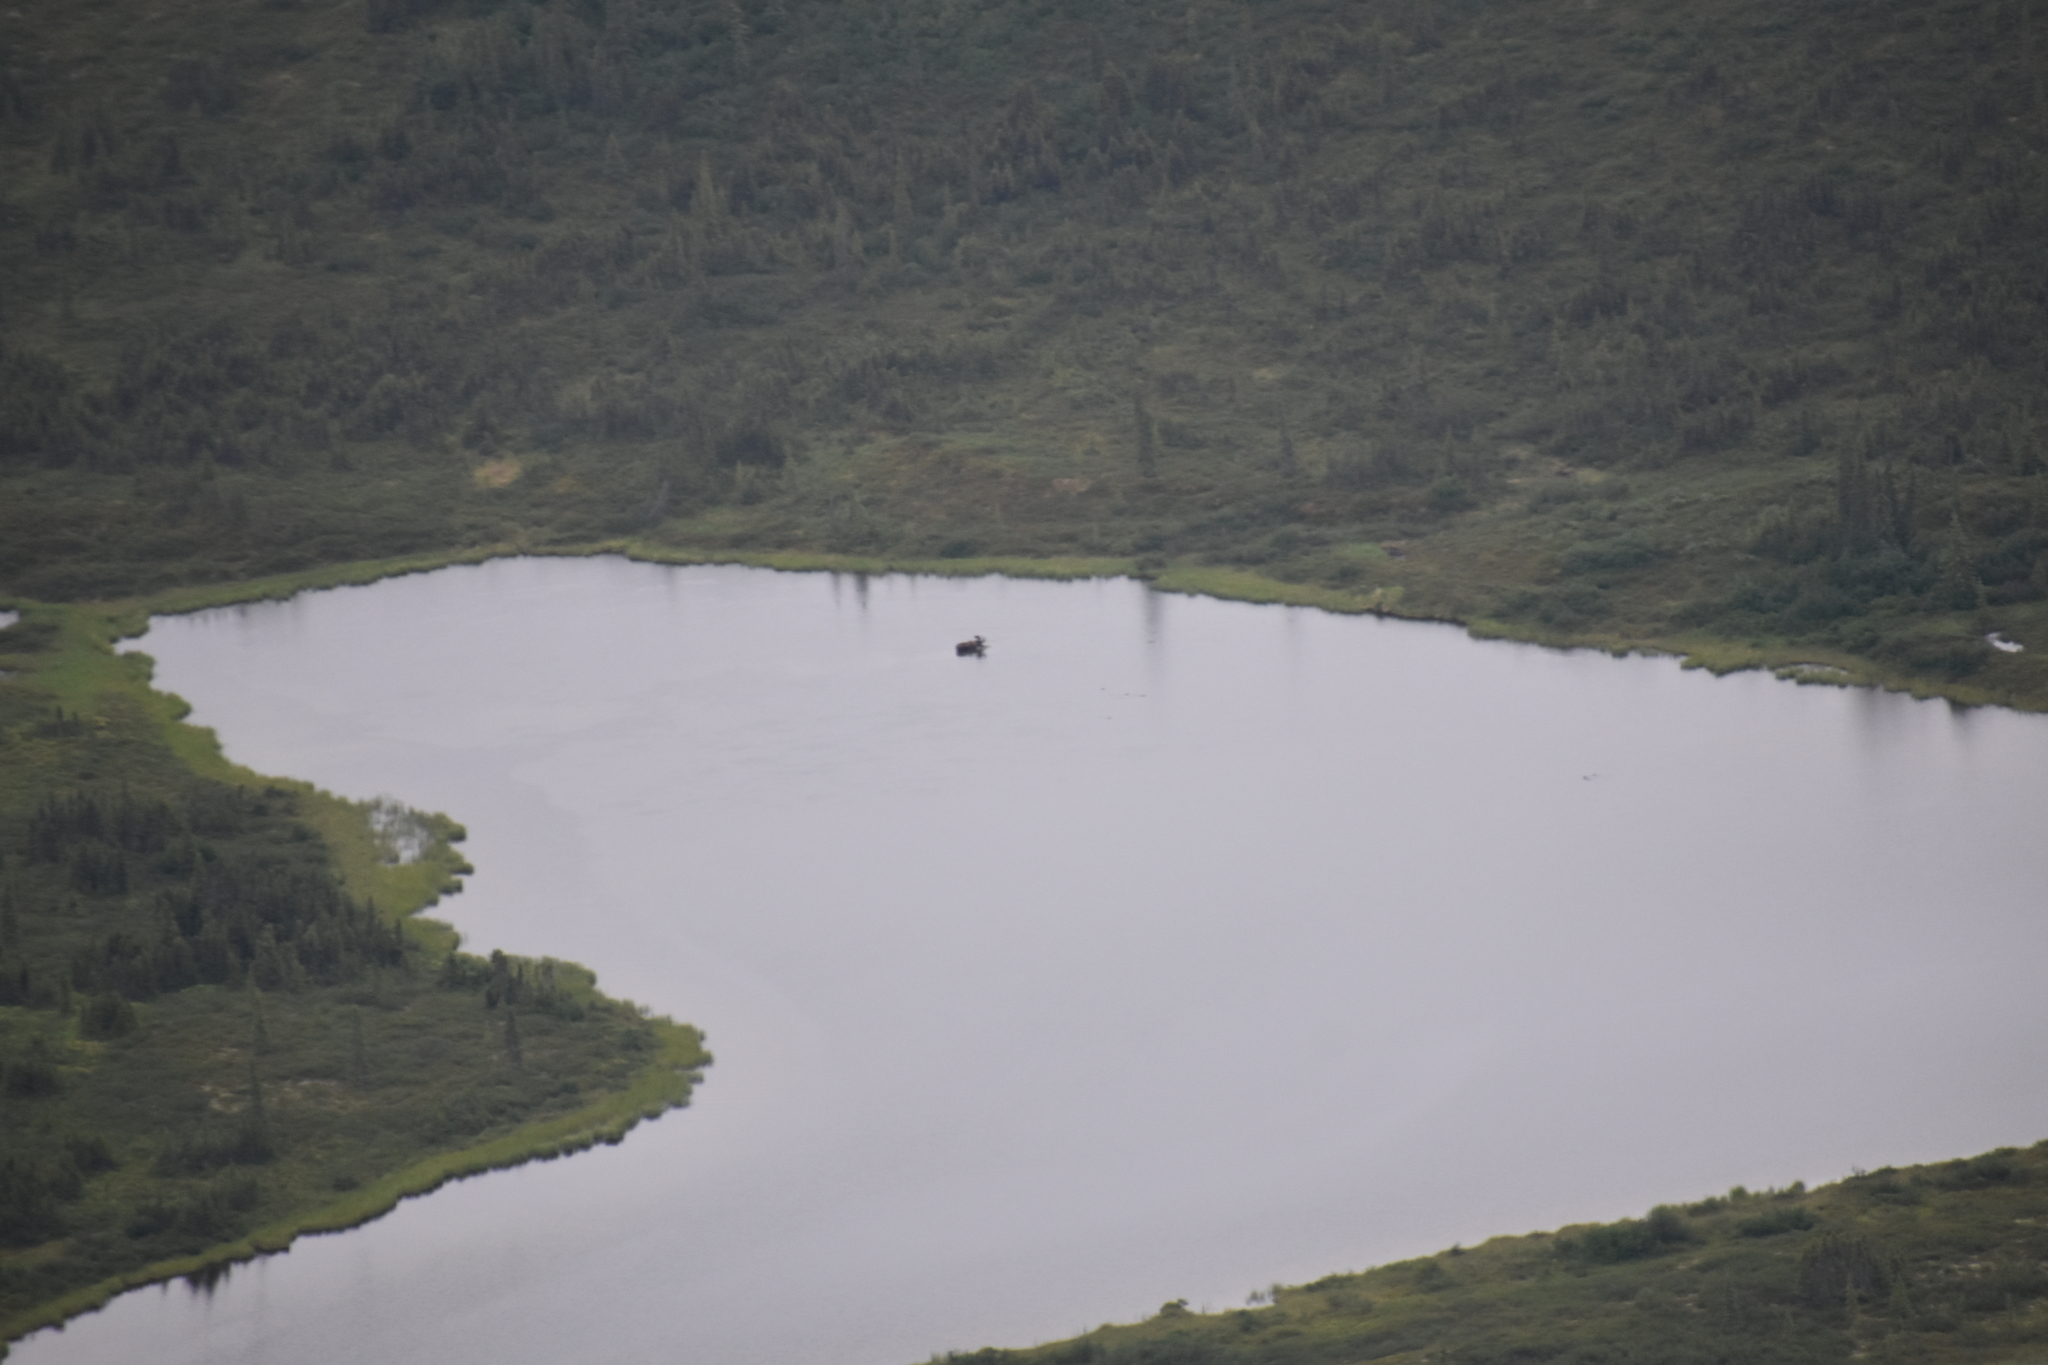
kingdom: Animalia
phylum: Chordata
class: Mammalia
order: Artiodactyla
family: Cervidae
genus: Alces
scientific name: Alces alces
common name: Moose
